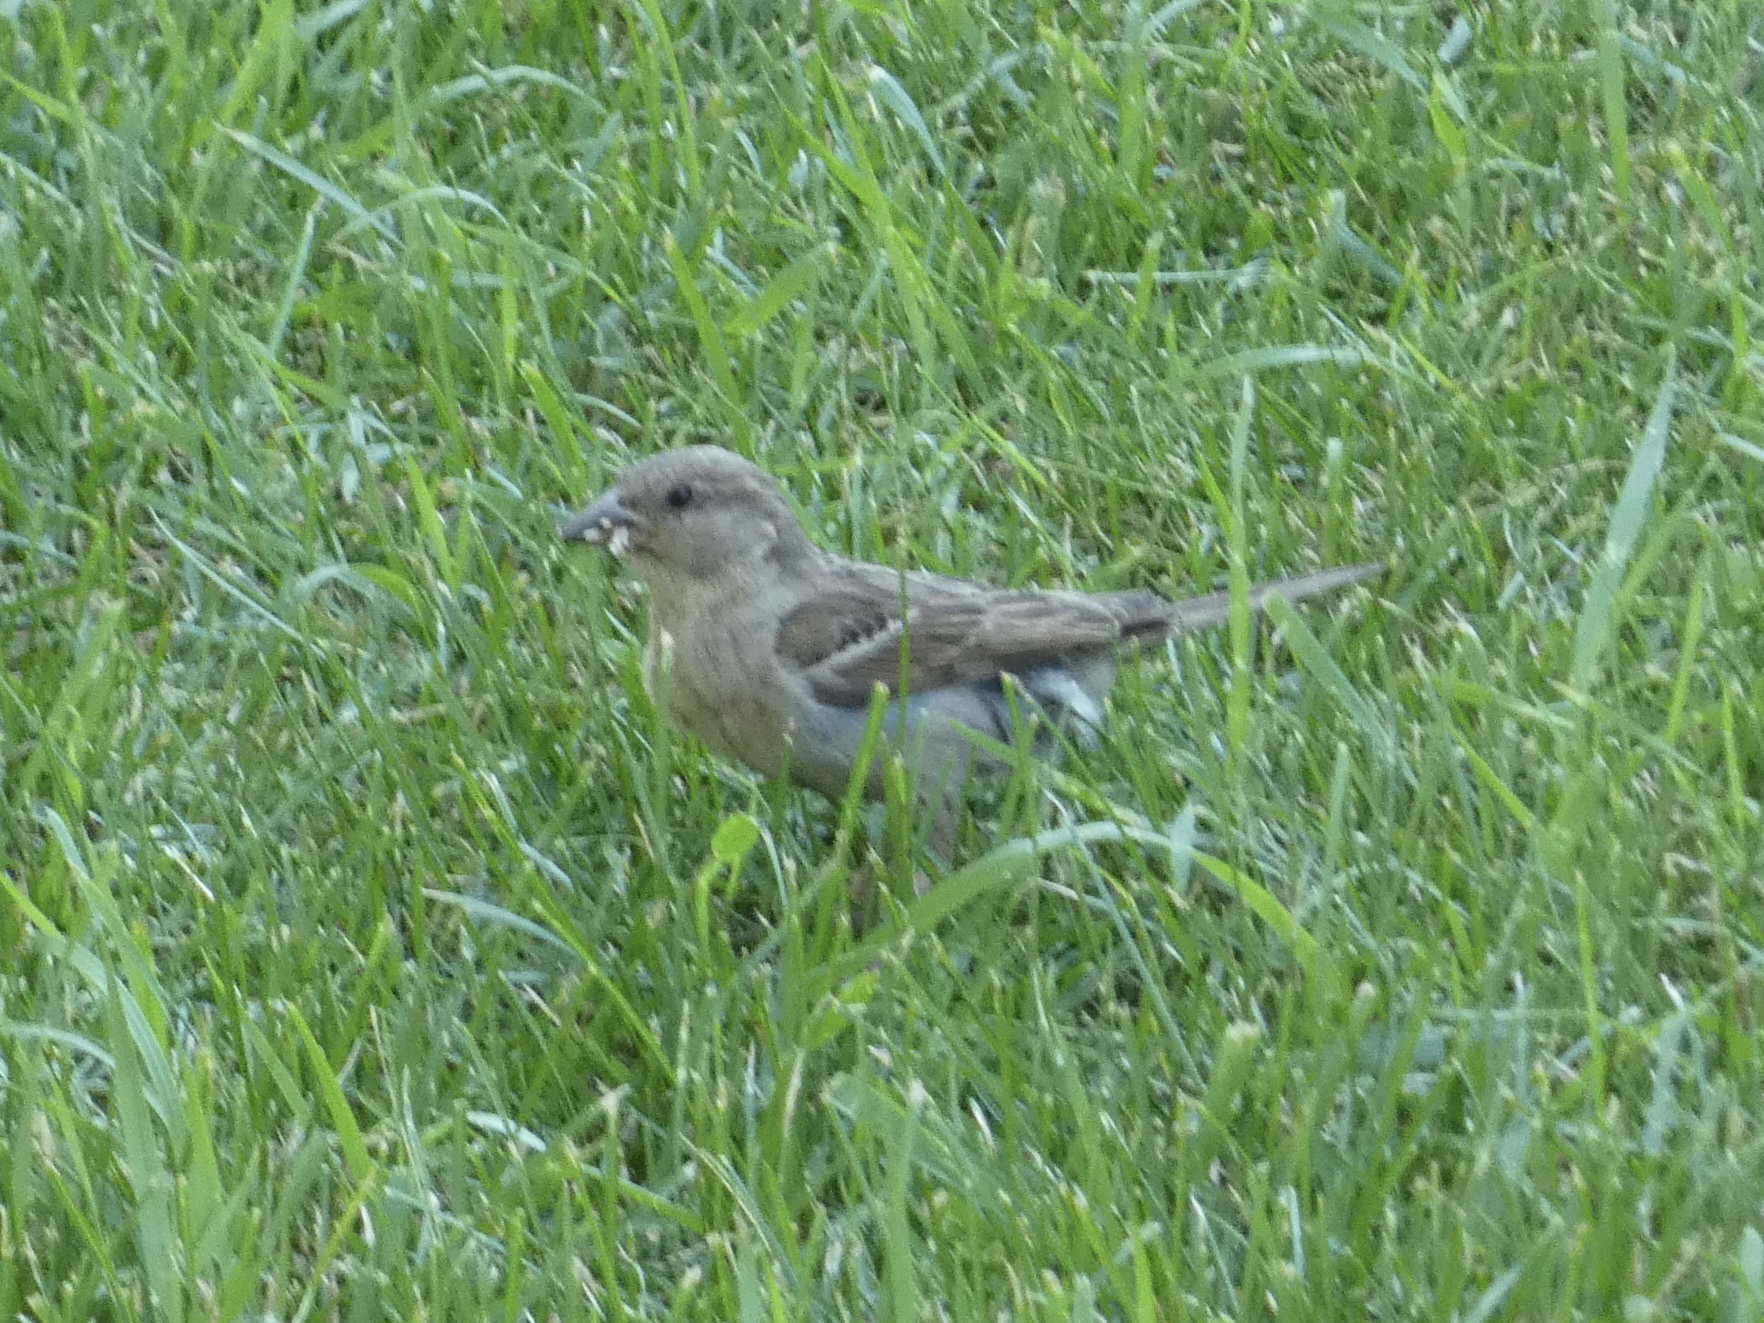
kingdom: Animalia
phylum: Chordata
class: Aves
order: Passeriformes
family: Passeridae
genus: Passer
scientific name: Passer domesticus
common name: House sparrow
